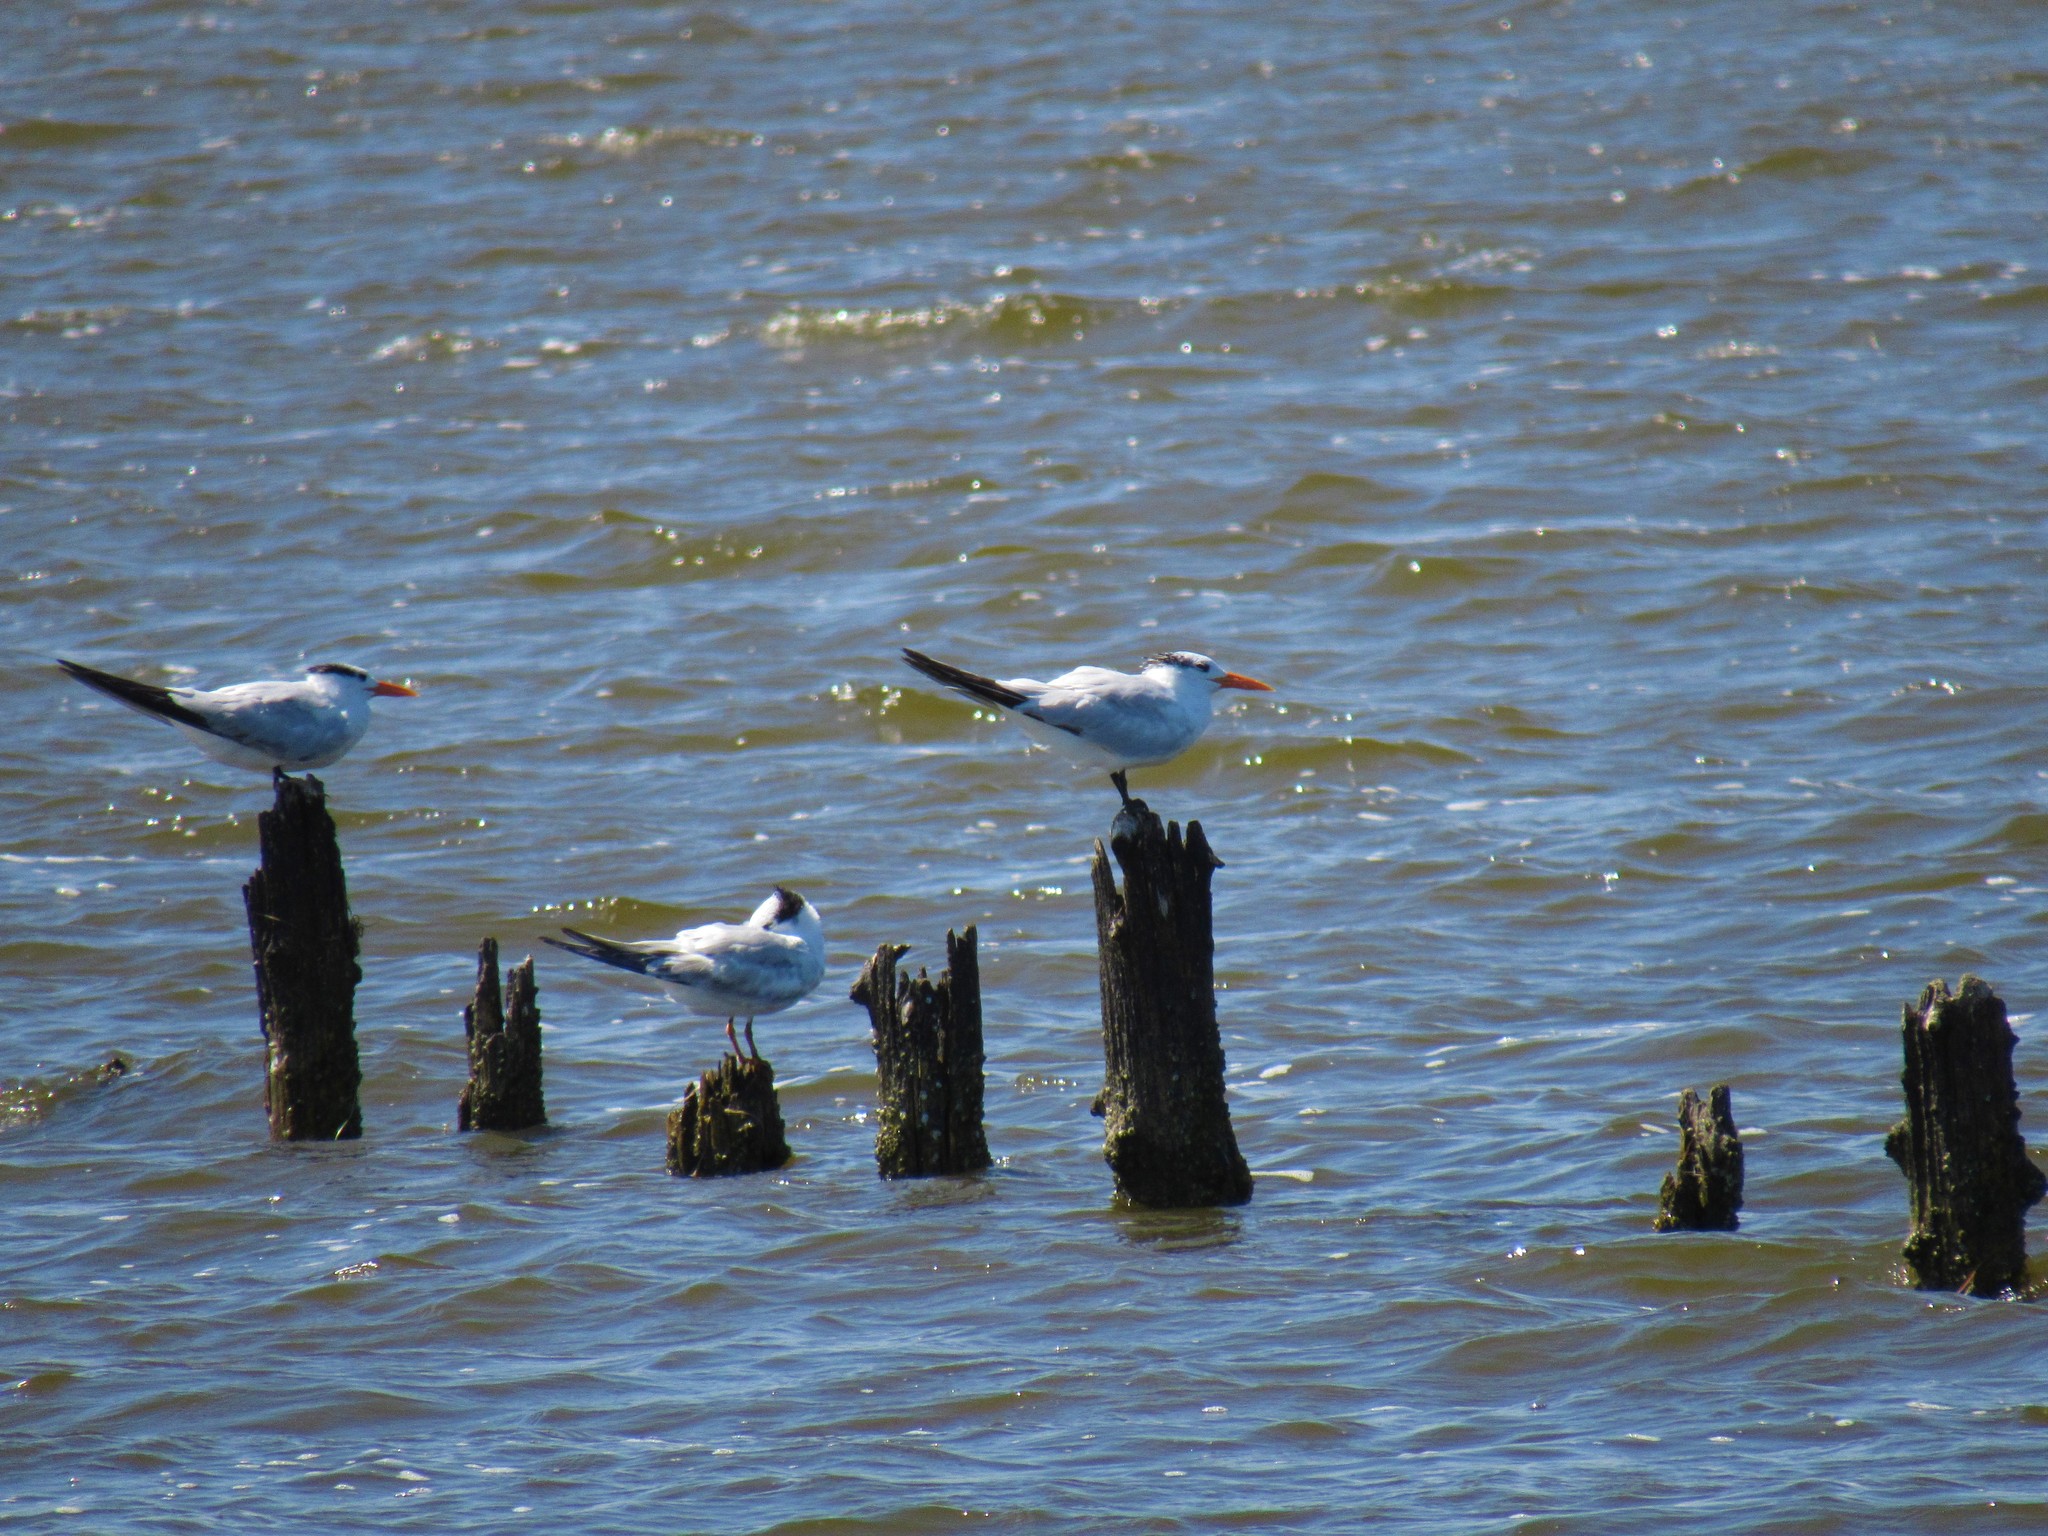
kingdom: Animalia
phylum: Chordata
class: Aves
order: Charadriiformes
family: Laridae
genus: Thalasseus
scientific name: Thalasseus maximus
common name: Royal tern
